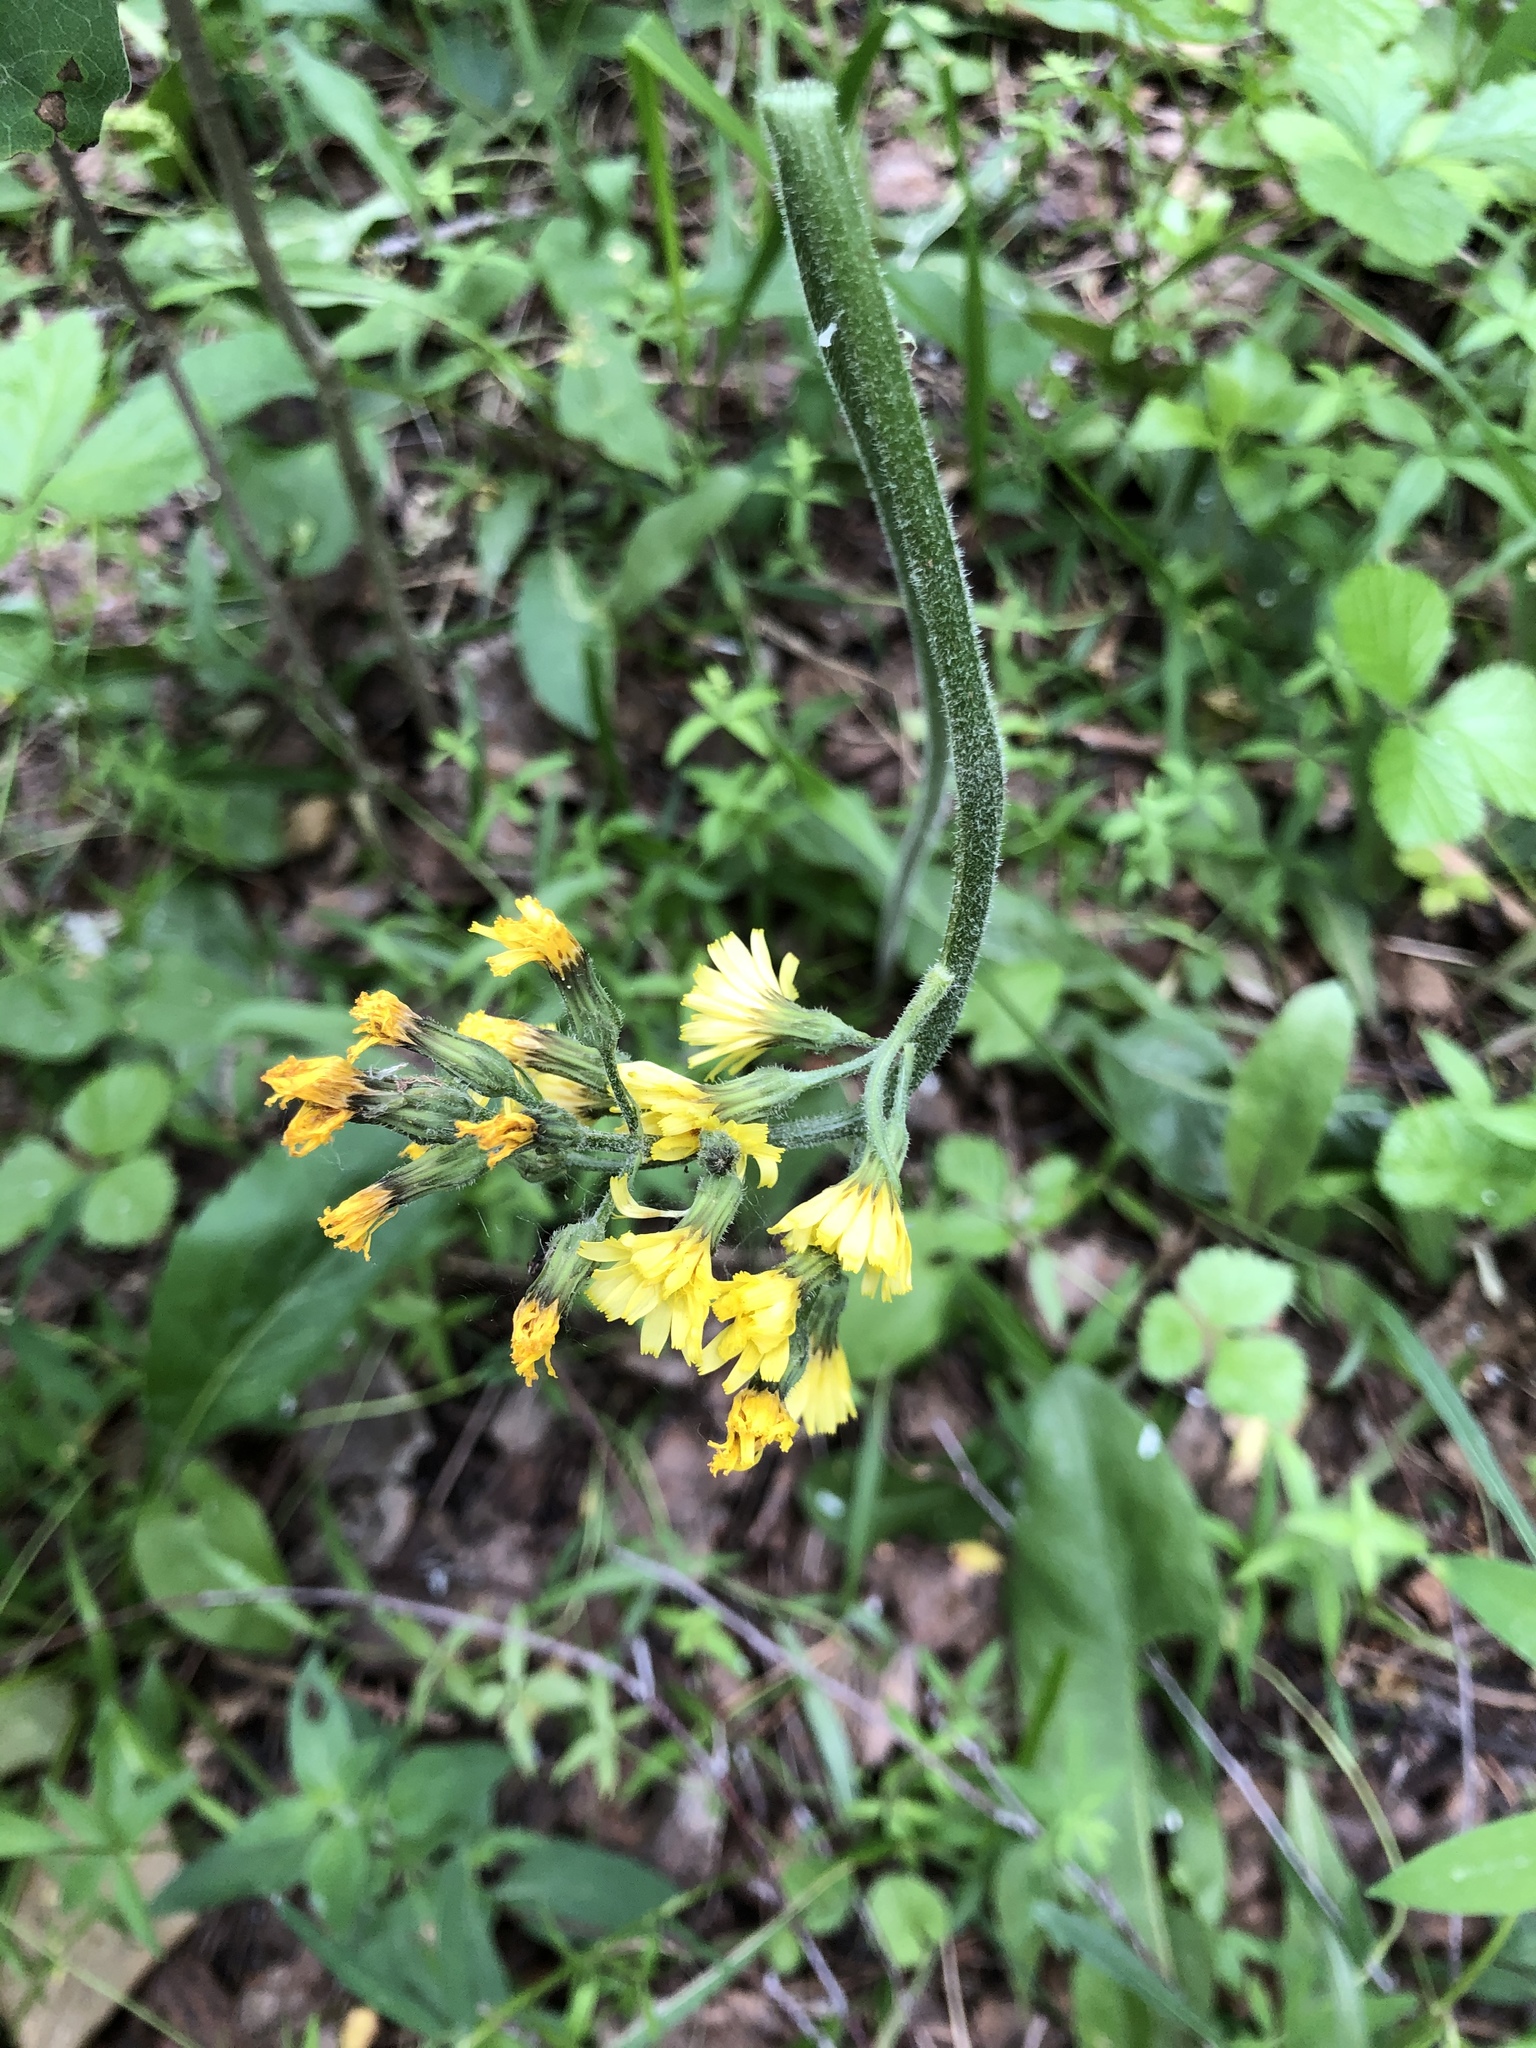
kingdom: Plantae
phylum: Tracheophyta
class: Magnoliopsida
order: Asterales
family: Asteraceae
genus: Crepis
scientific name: Crepis praemorsa
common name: Leafless hawk's-beard
